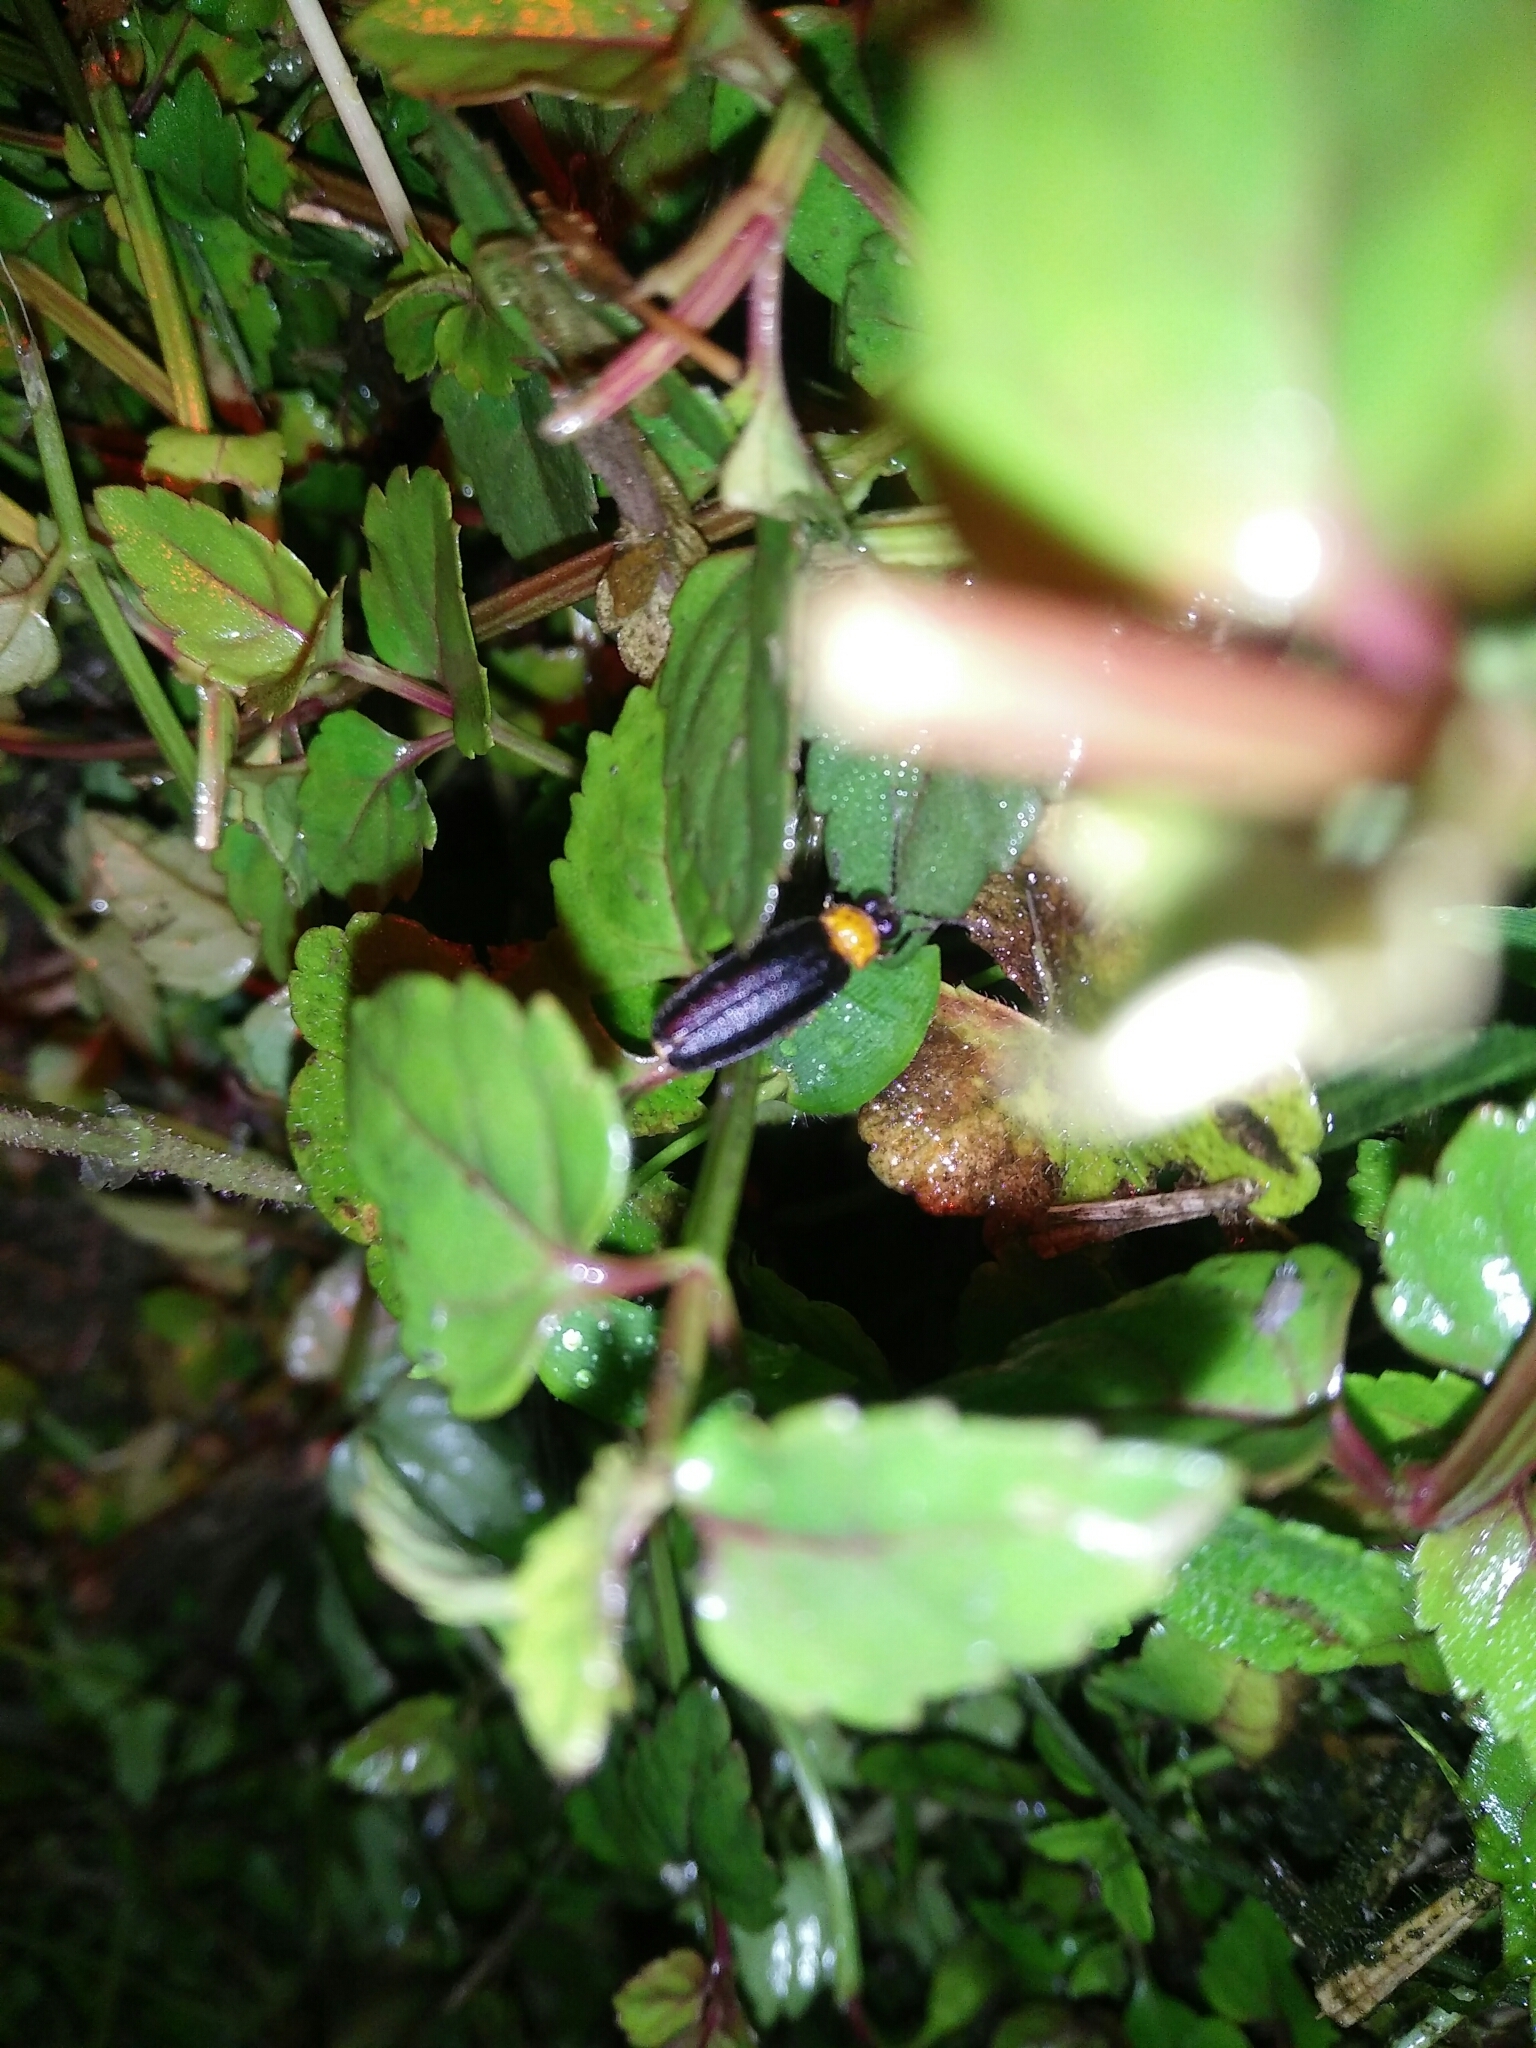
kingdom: Animalia
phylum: Arthropoda
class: Insecta
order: Coleoptera
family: Lampyridae
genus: Abscondita
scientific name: Abscondita cerata
